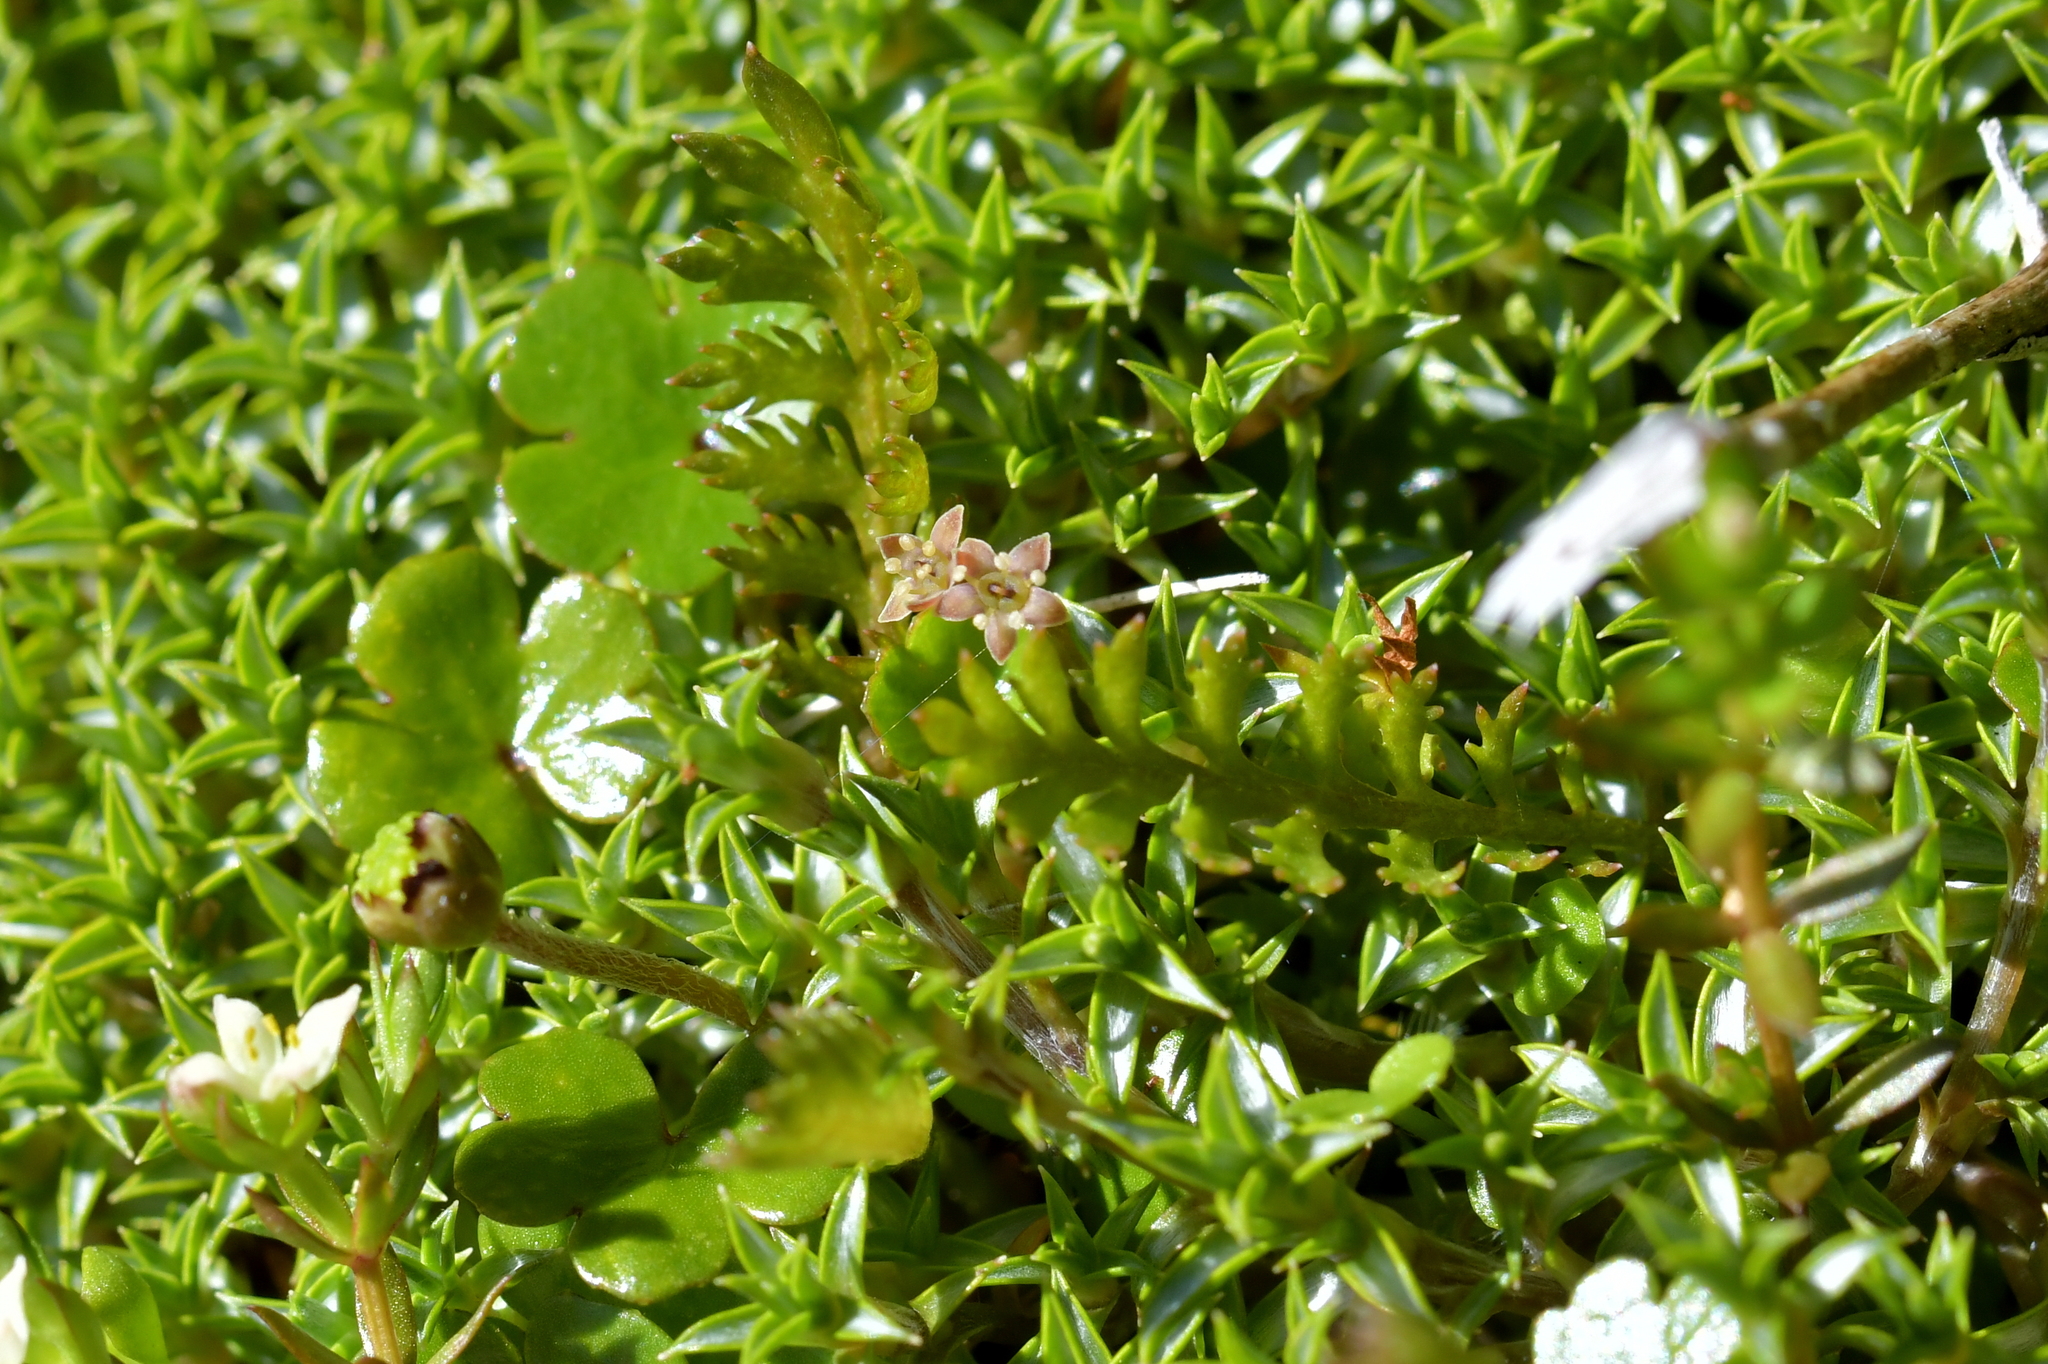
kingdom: Plantae
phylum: Tracheophyta
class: Magnoliopsida
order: Apiales
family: Araliaceae
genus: Hydrocotyle
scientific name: Hydrocotyle novae-zeelandiae
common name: New zealand pennywort
